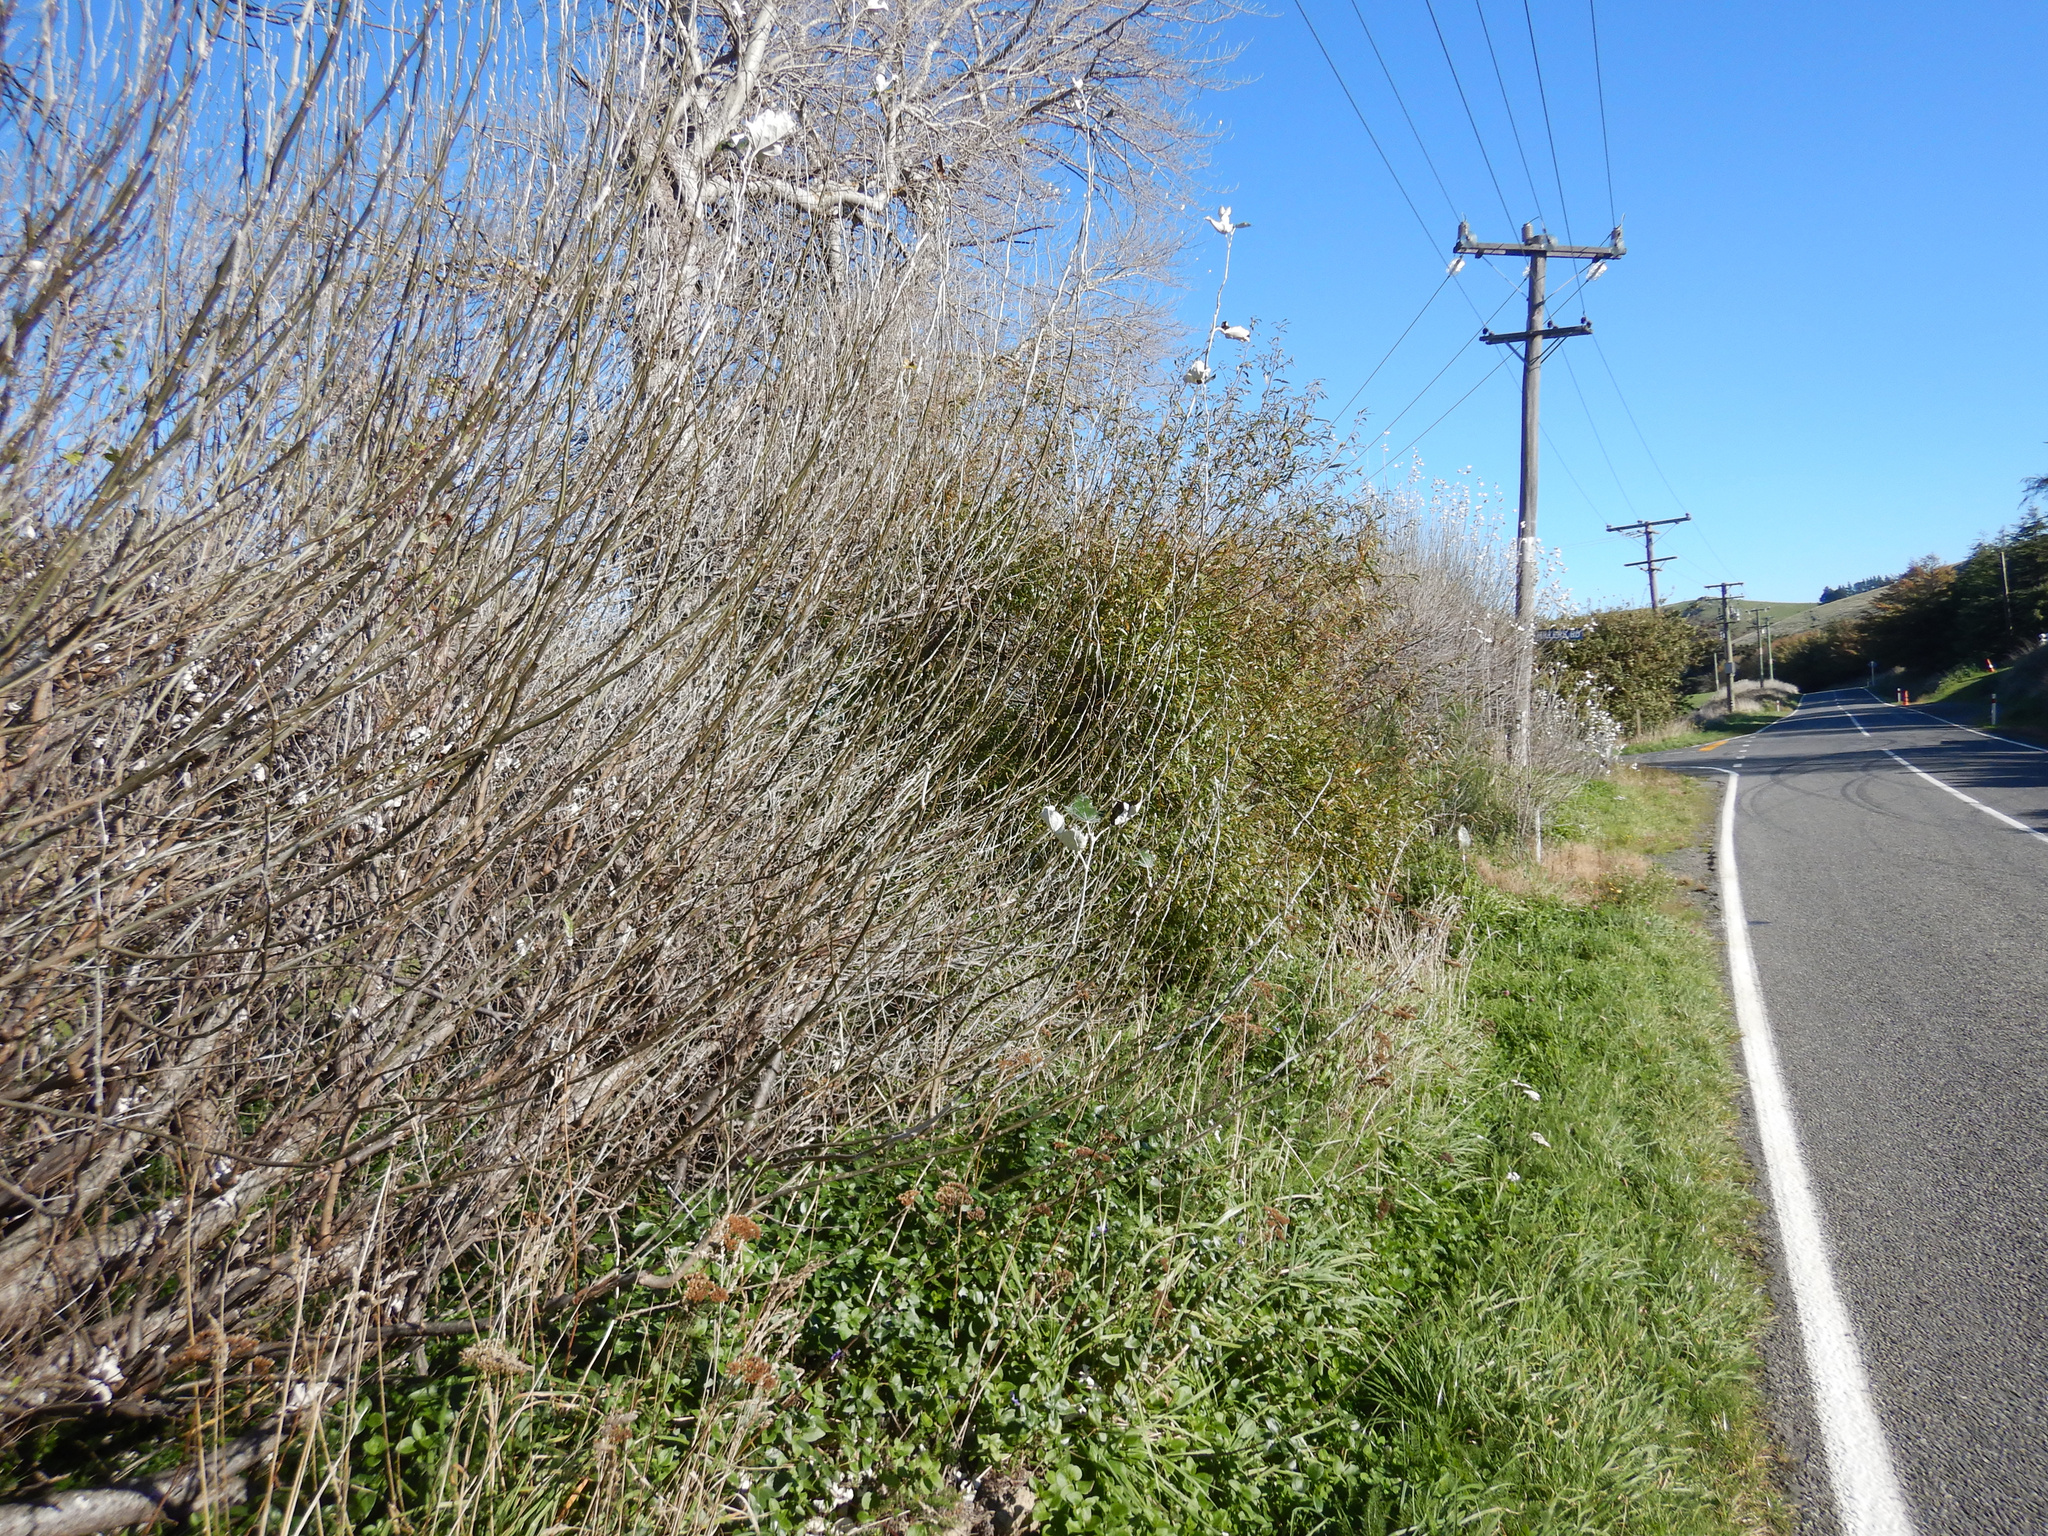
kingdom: Plantae
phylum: Tracheophyta
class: Magnoliopsida
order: Malpighiales
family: Salicaceae
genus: Populus
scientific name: Populus alba
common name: White poplar
